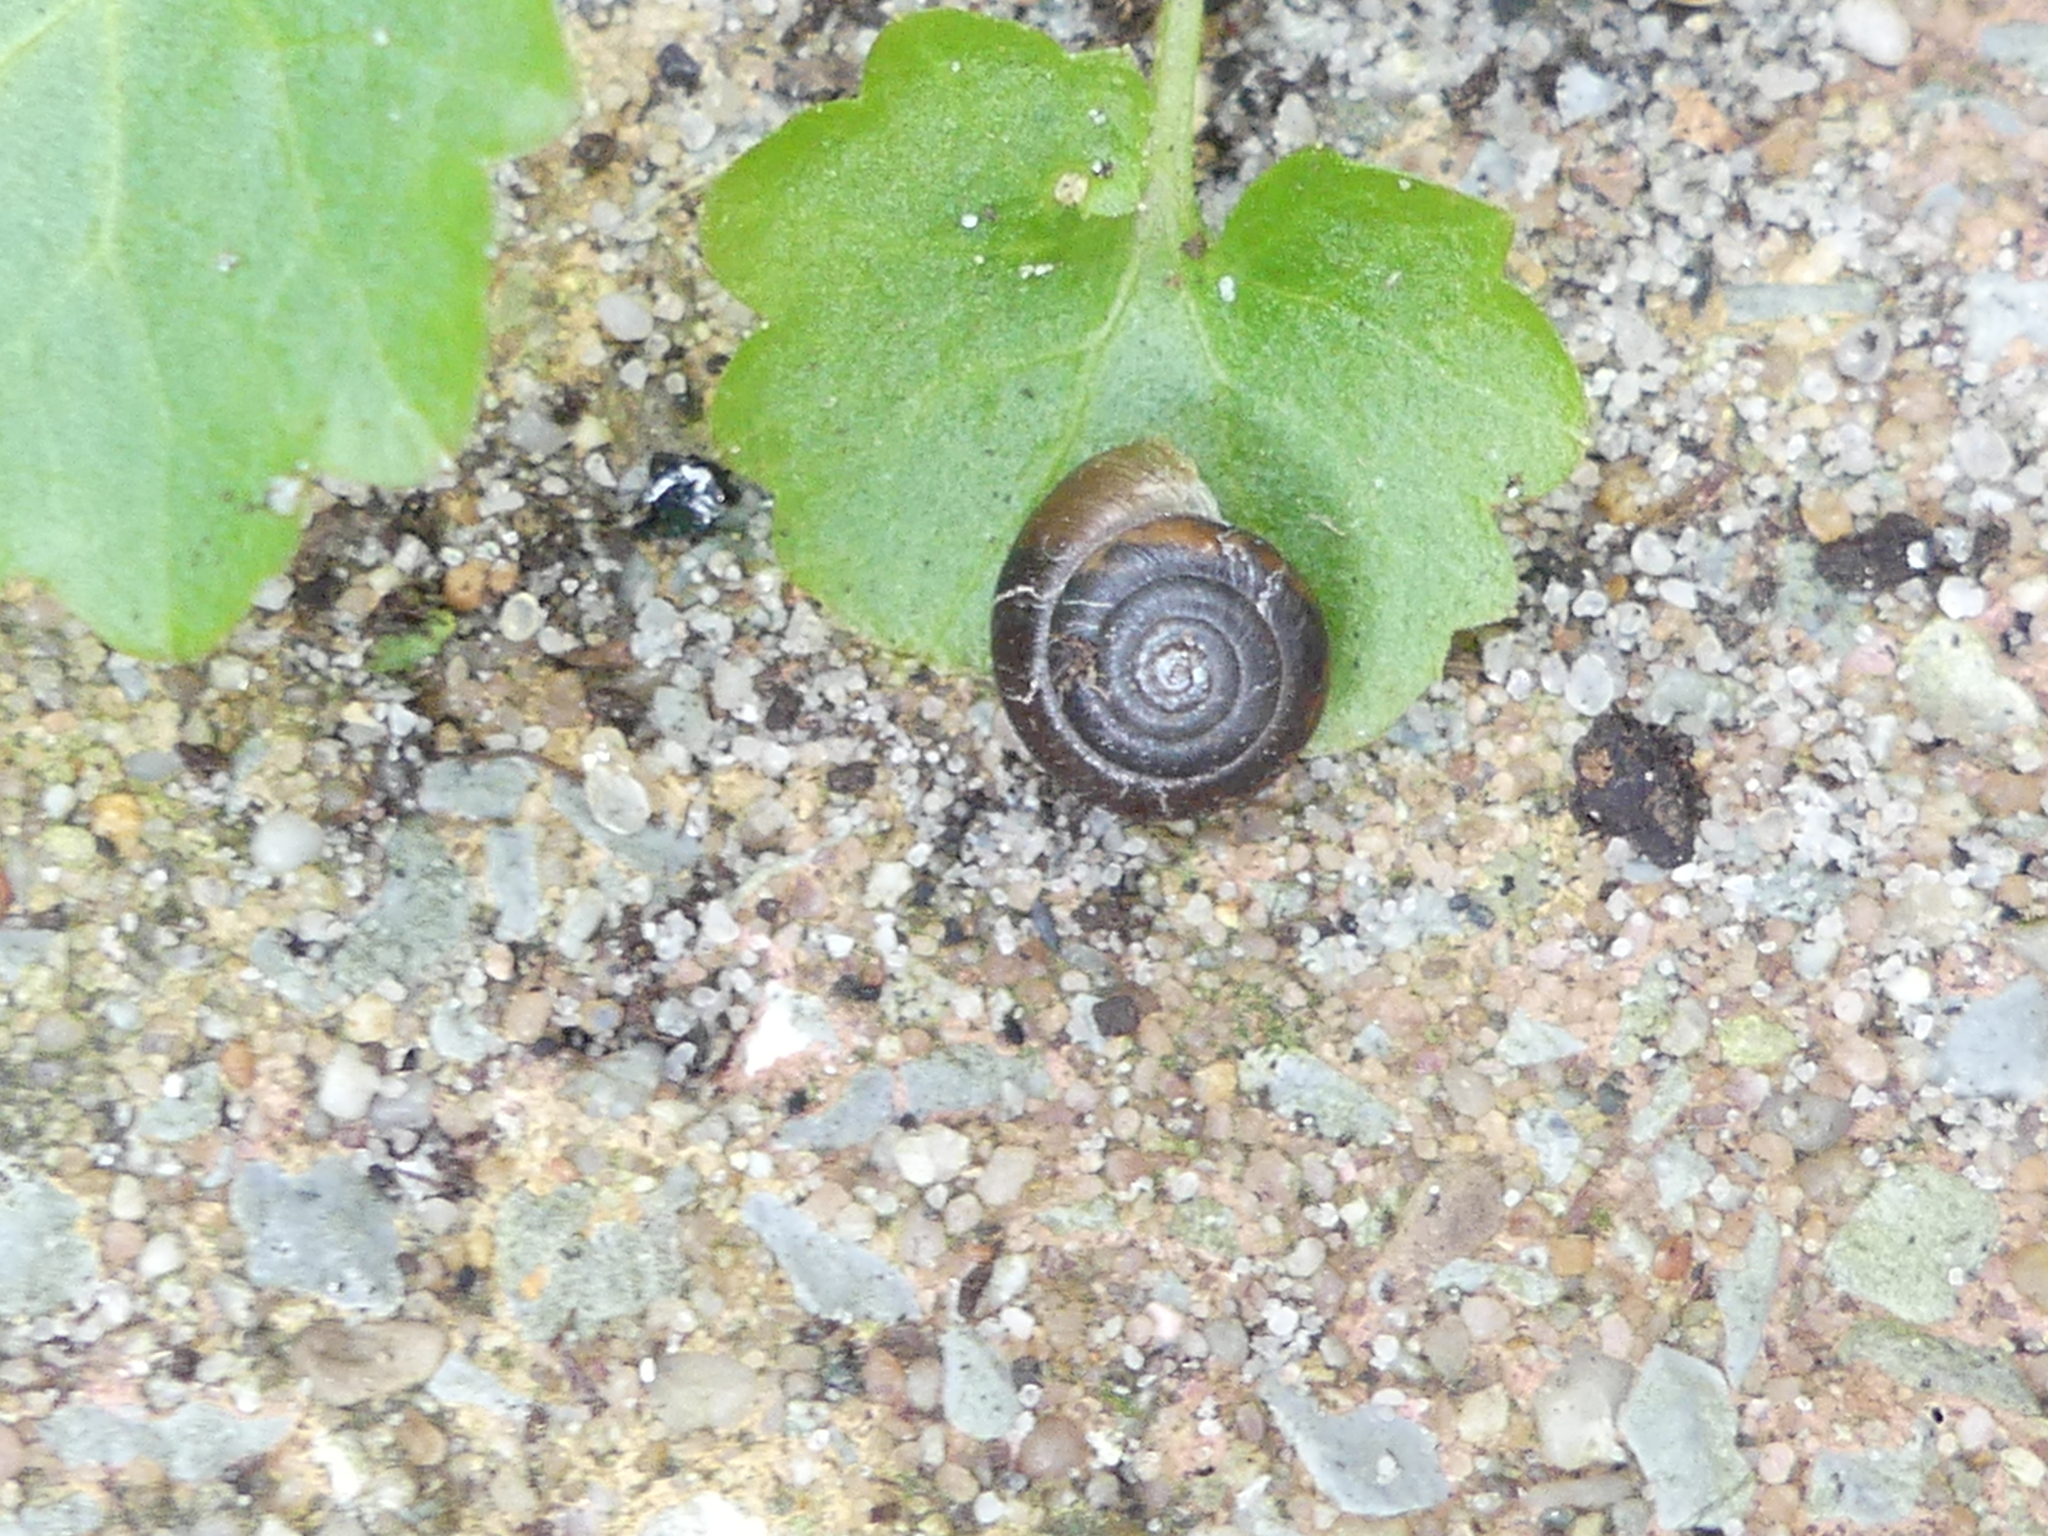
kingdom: Animalia
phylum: Mollusca
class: Gastropoda
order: Stylommatophora
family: Hygromiidae
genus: Trochulus
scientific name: Trochulus hispidus
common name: Hairy snail
